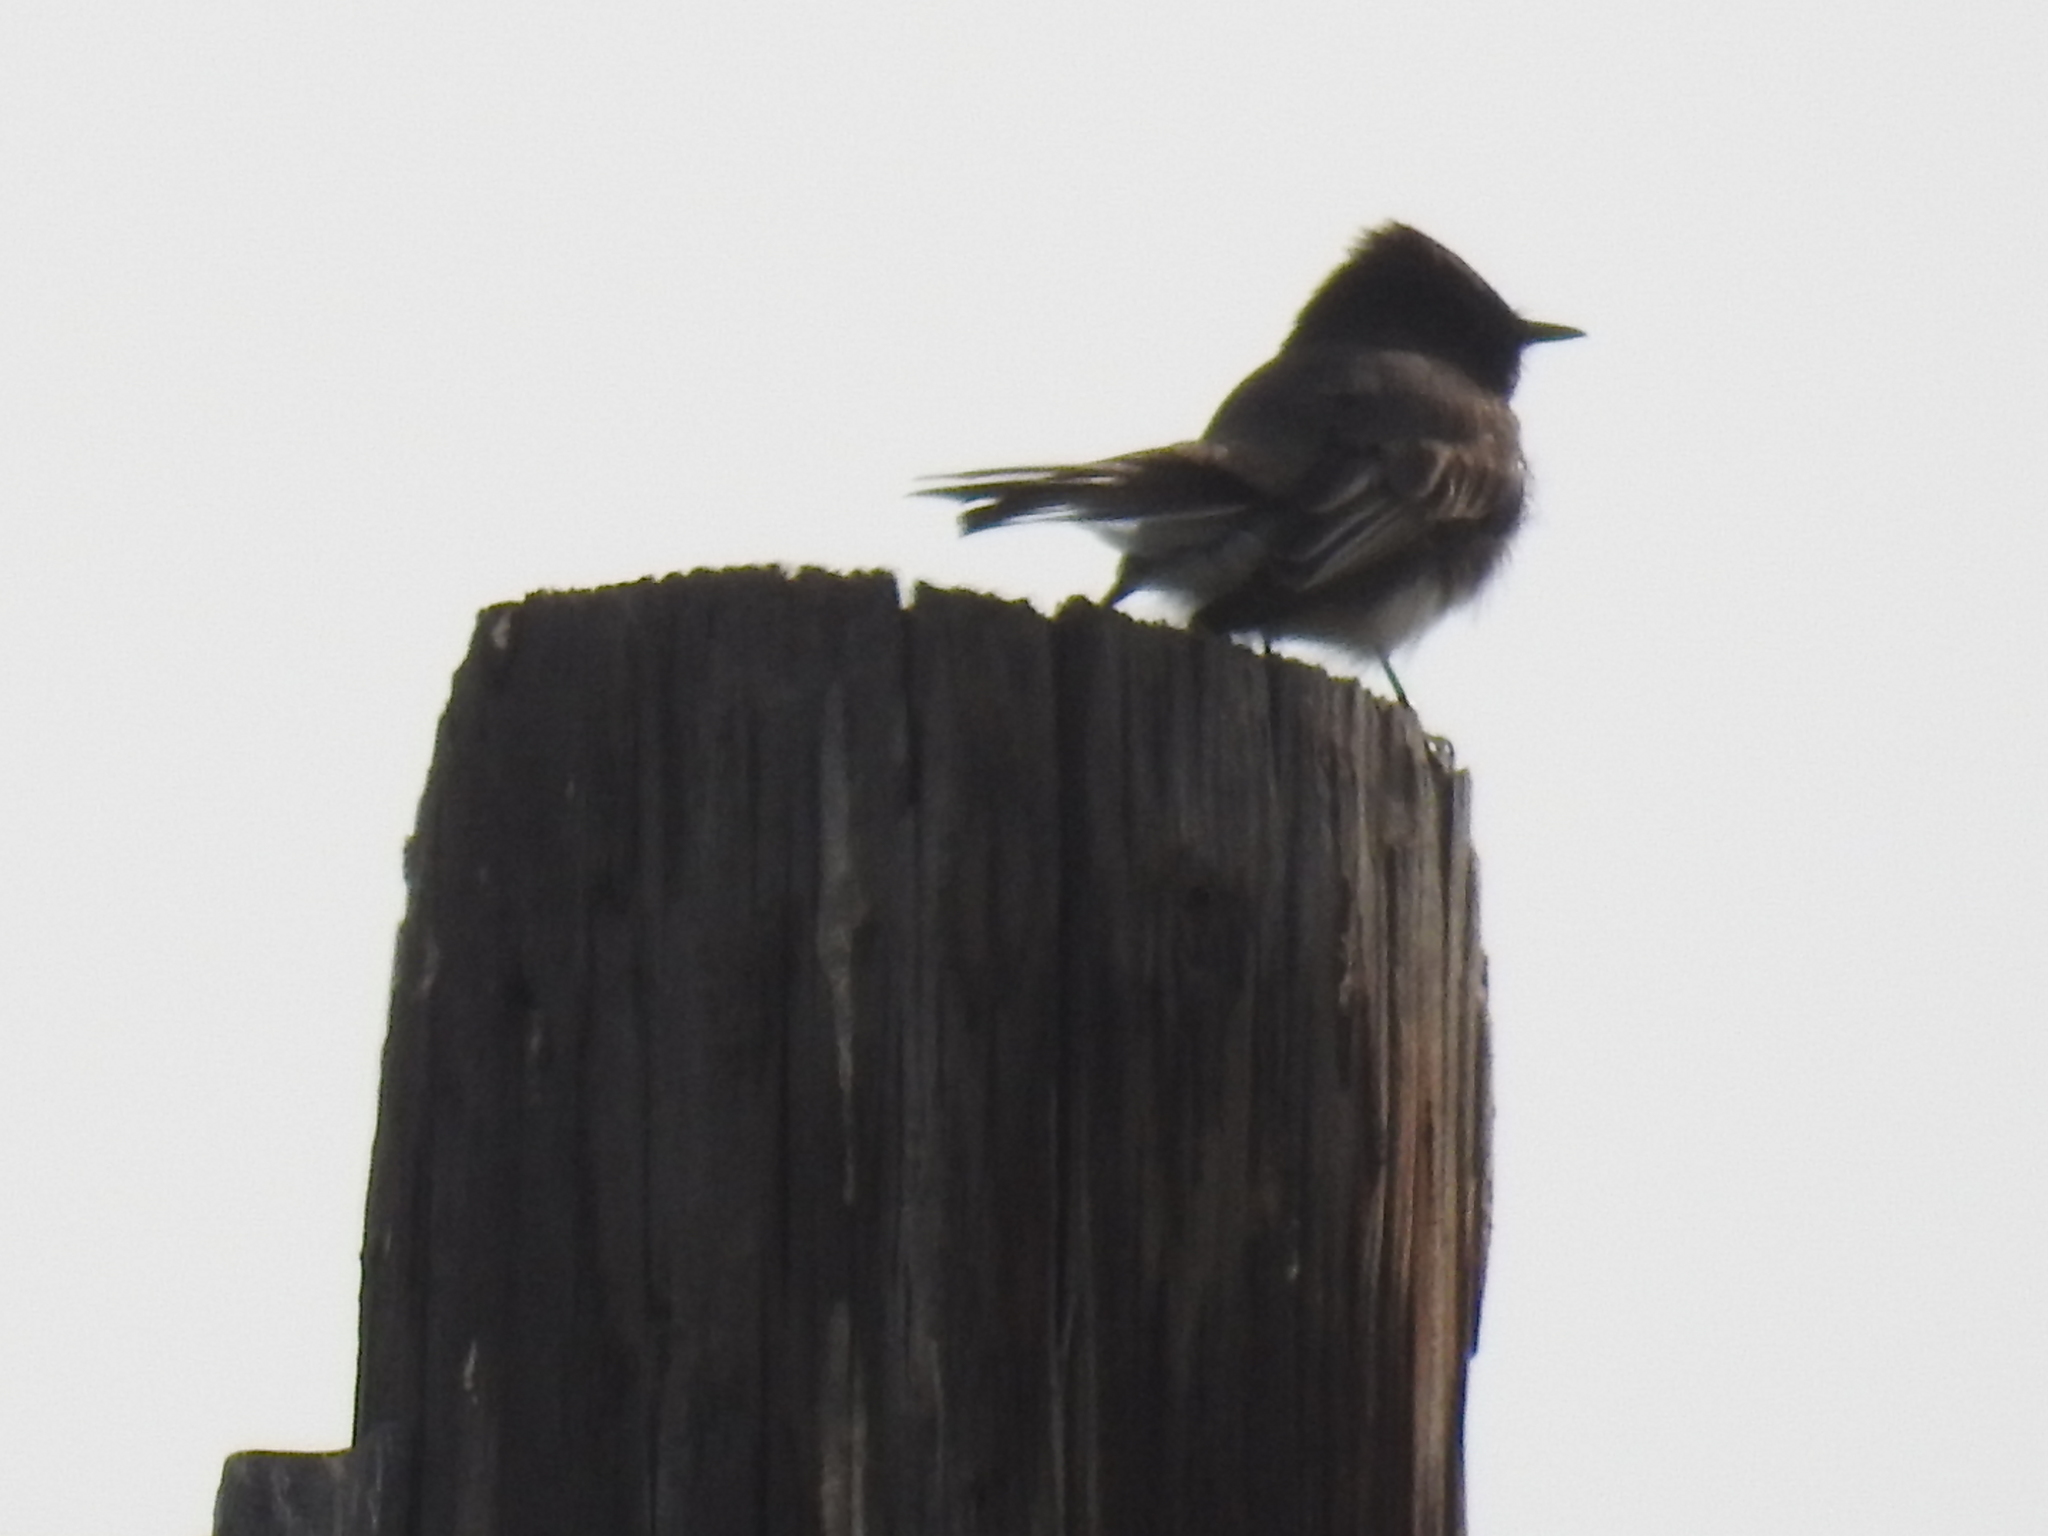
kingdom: Animalia
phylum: Chordata
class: Aves
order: Passeriformes
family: Tyrannidae
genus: Sayornis
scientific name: Sayornis nigricans
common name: Black phoebe
